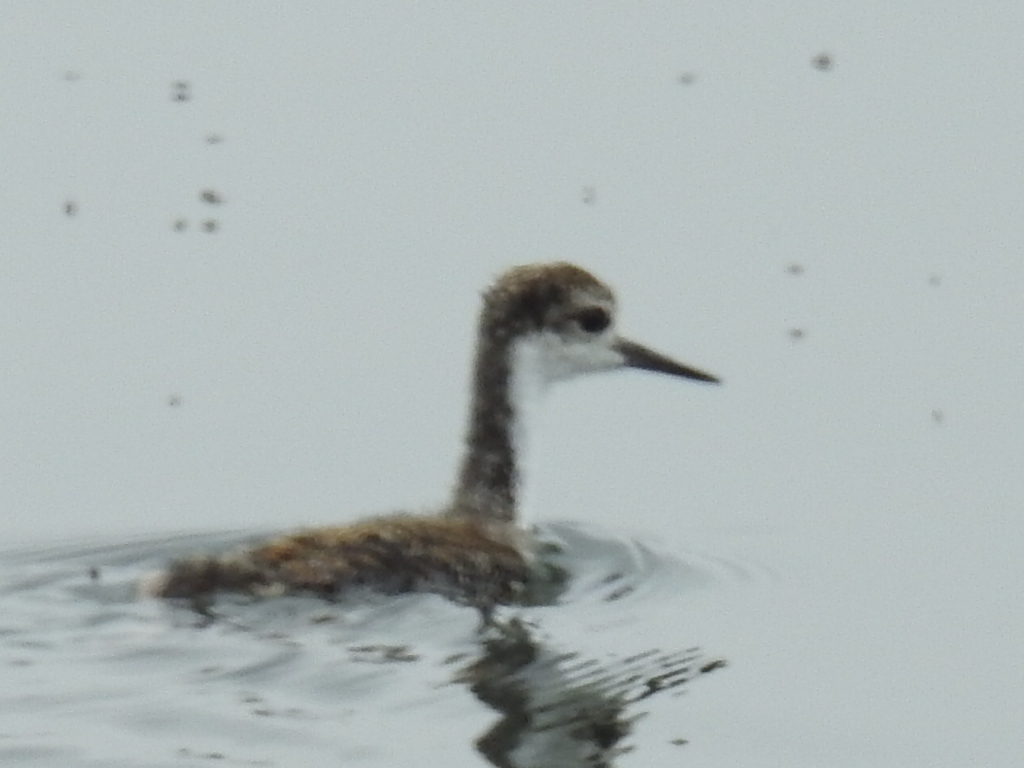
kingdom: Animalia
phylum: Chordata
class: Aves
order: Charadriiformes
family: Recurvirostridae
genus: Himantopus
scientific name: Himantopus mexicanus
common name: Black-necked stilt
